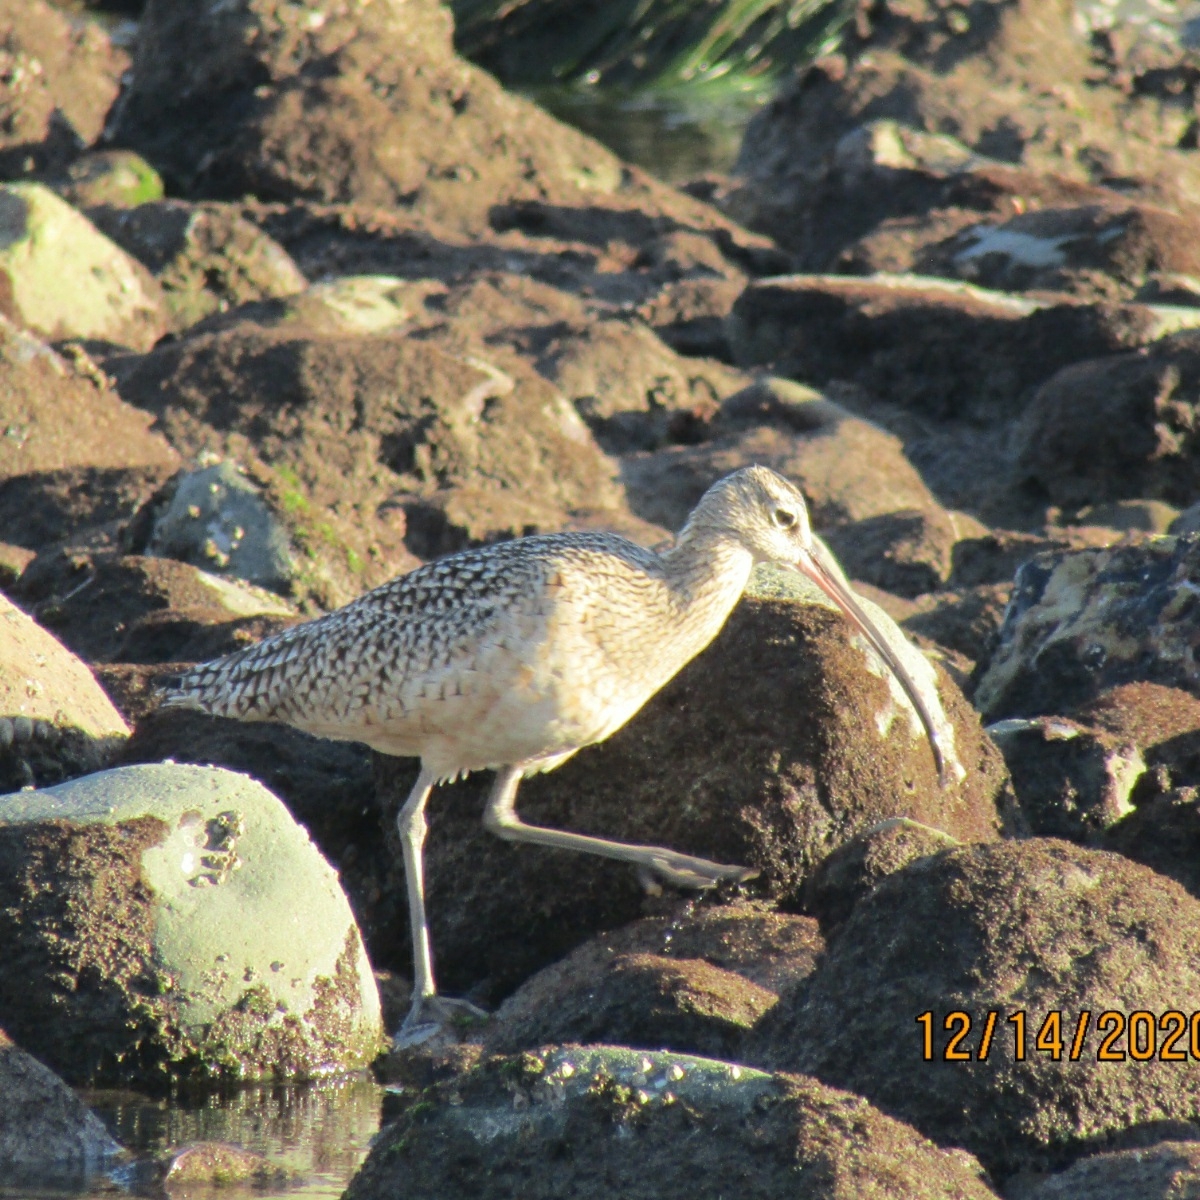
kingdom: Animalia
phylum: Chordata
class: Aves
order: Charadriiformes
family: Scolopacidae
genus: Numenius
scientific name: Numenius americanus
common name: Long-billed curlew
